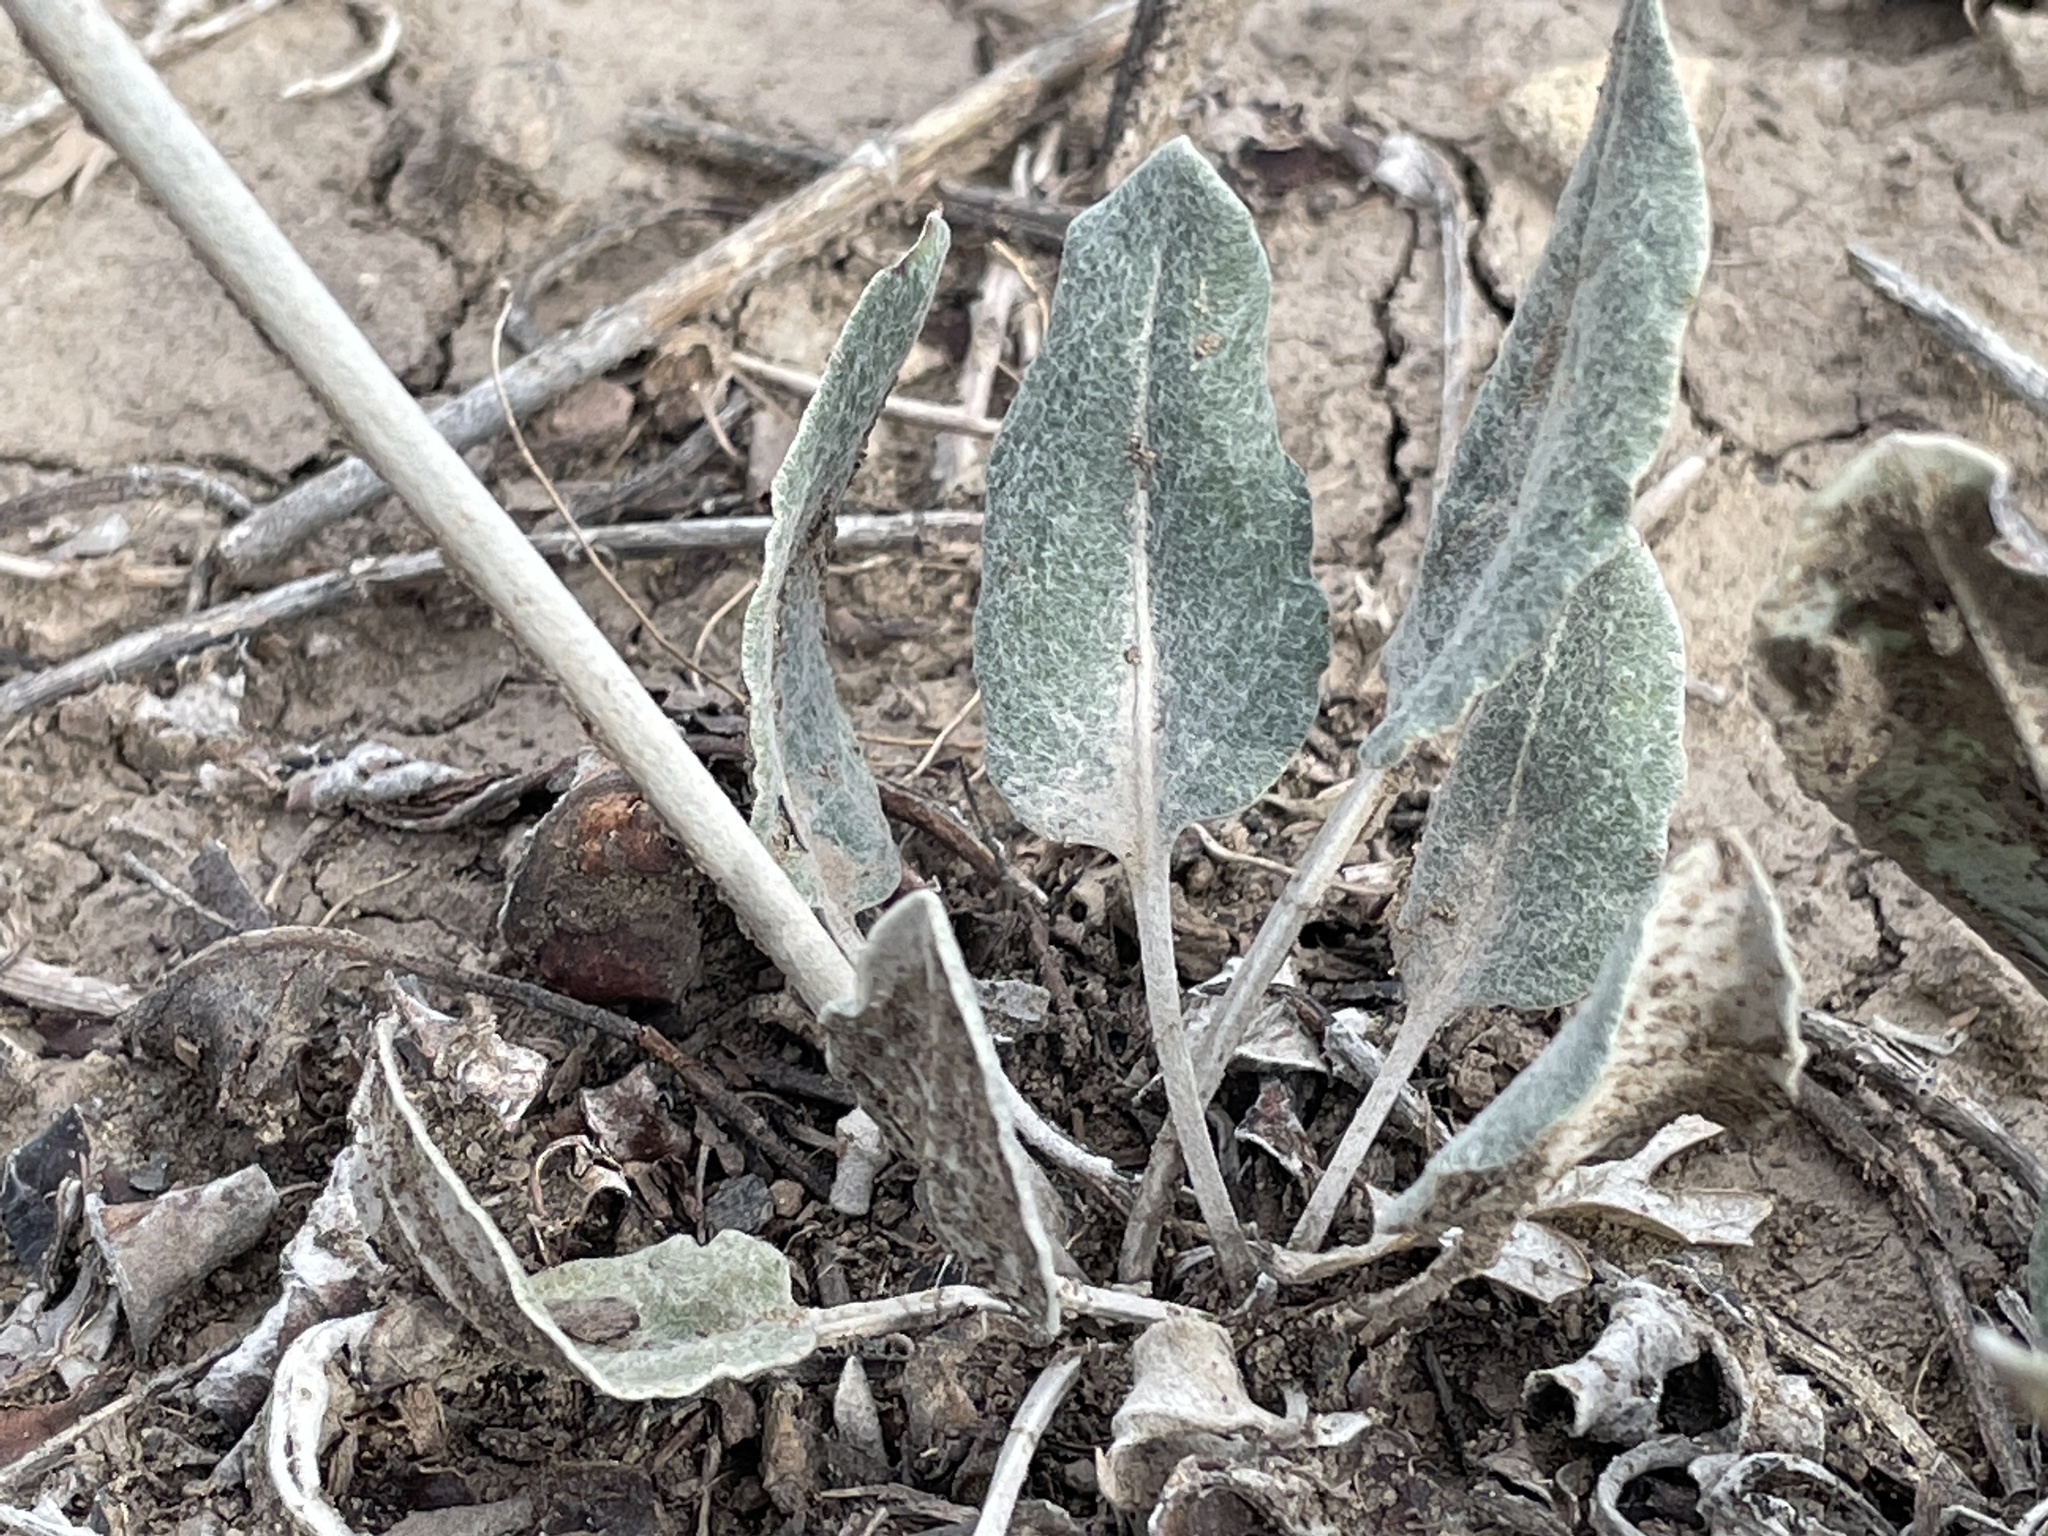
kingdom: Plantae
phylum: Tracheophyta
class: Magnoliopsida
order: Caryophyllales
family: Polygonaceae
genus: Eriogonum
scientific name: Eriogonum racemosum
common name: Redroot wild buckwheat
